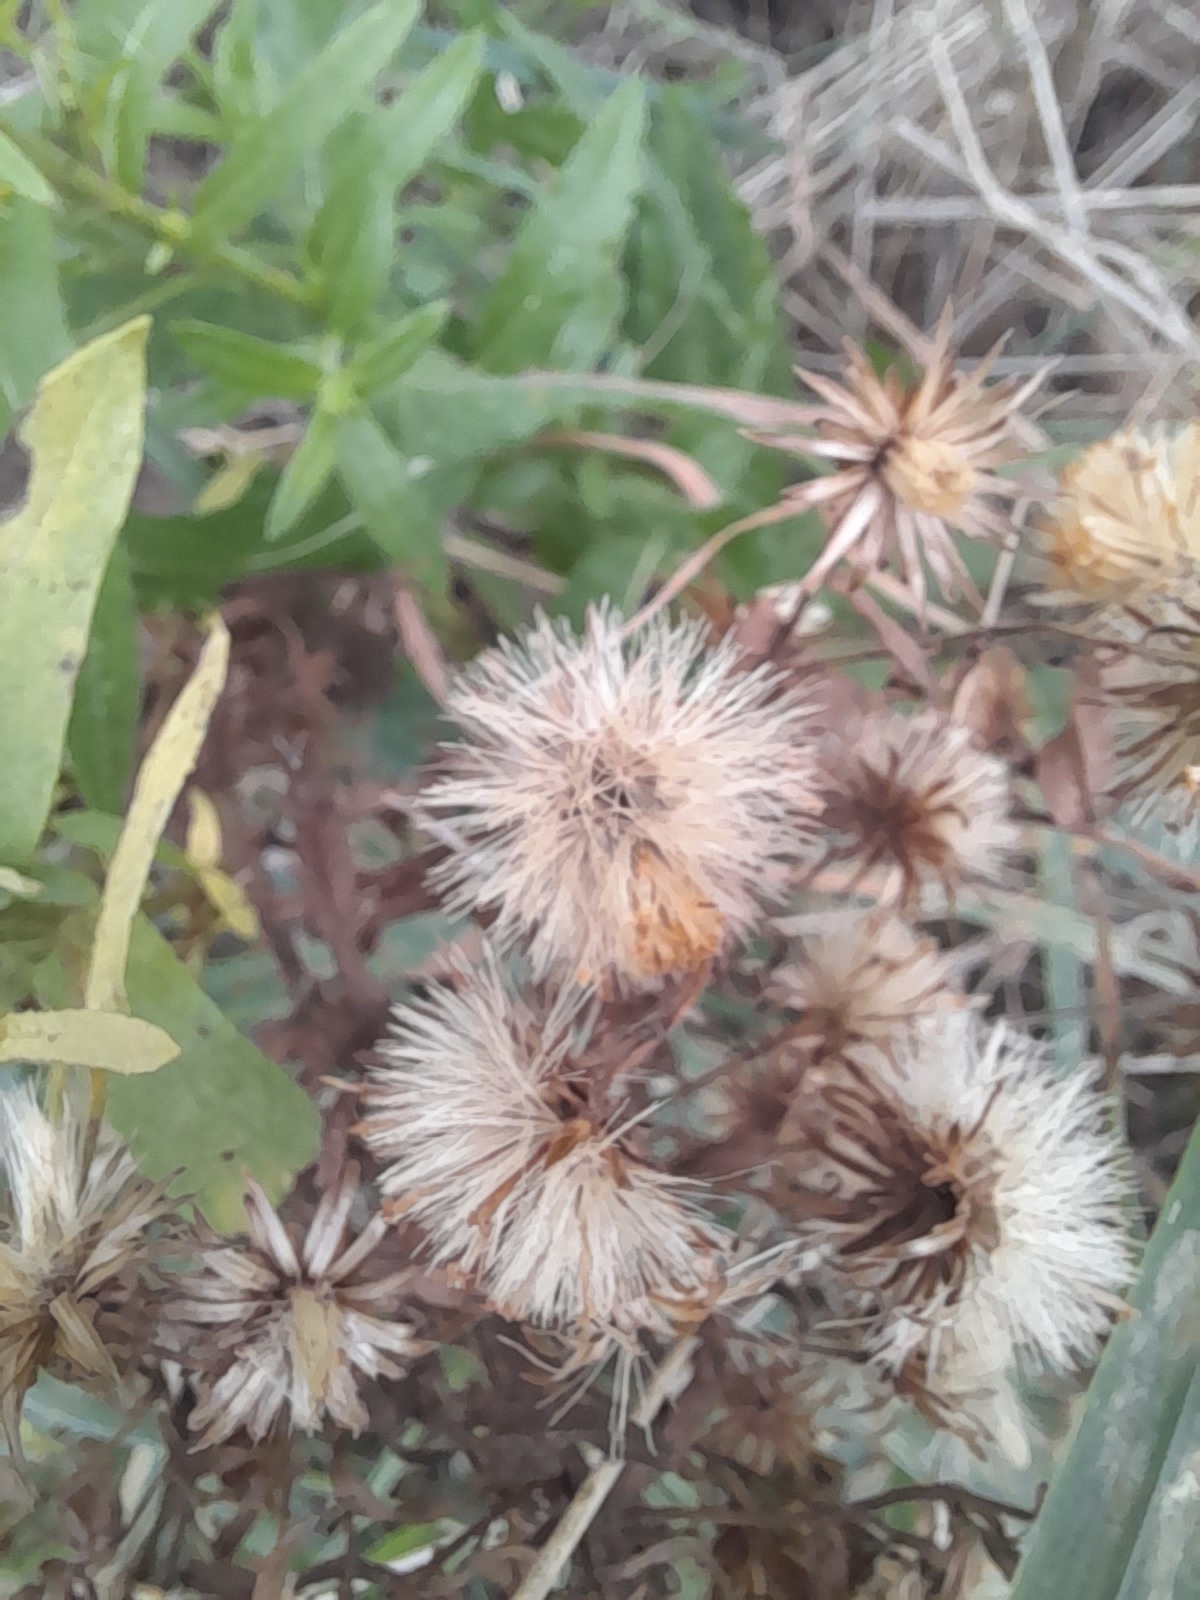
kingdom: Plantae
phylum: Tracheophyta
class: Magnoliopsida
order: Asterales
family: Asteraceae
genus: Dittrichia
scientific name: Dittrichia viscosa
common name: Woody fleabane
